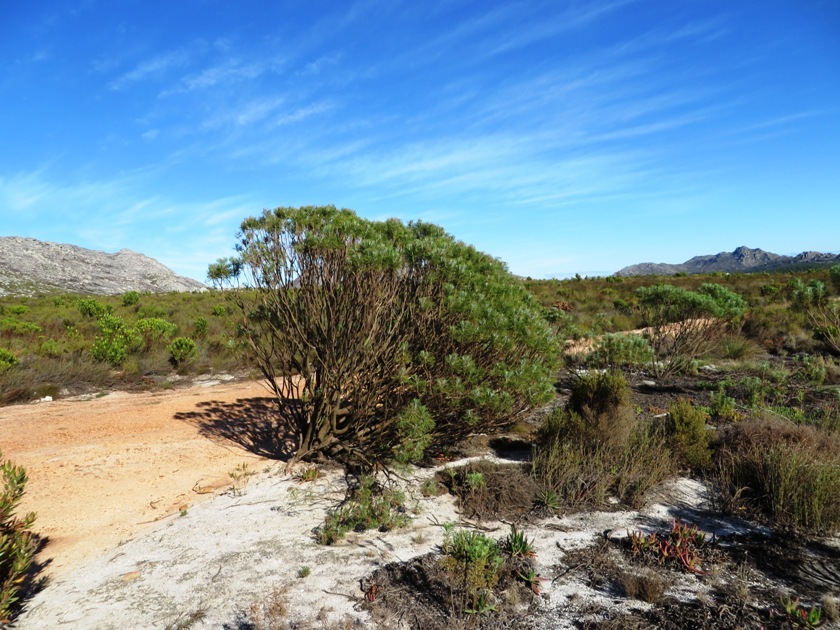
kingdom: Plantae
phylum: Tracheophyta
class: Magnoliopsida
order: Asterales
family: Asteraceae
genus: Hymenolepis
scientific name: Hymenolepis crithmifolia
